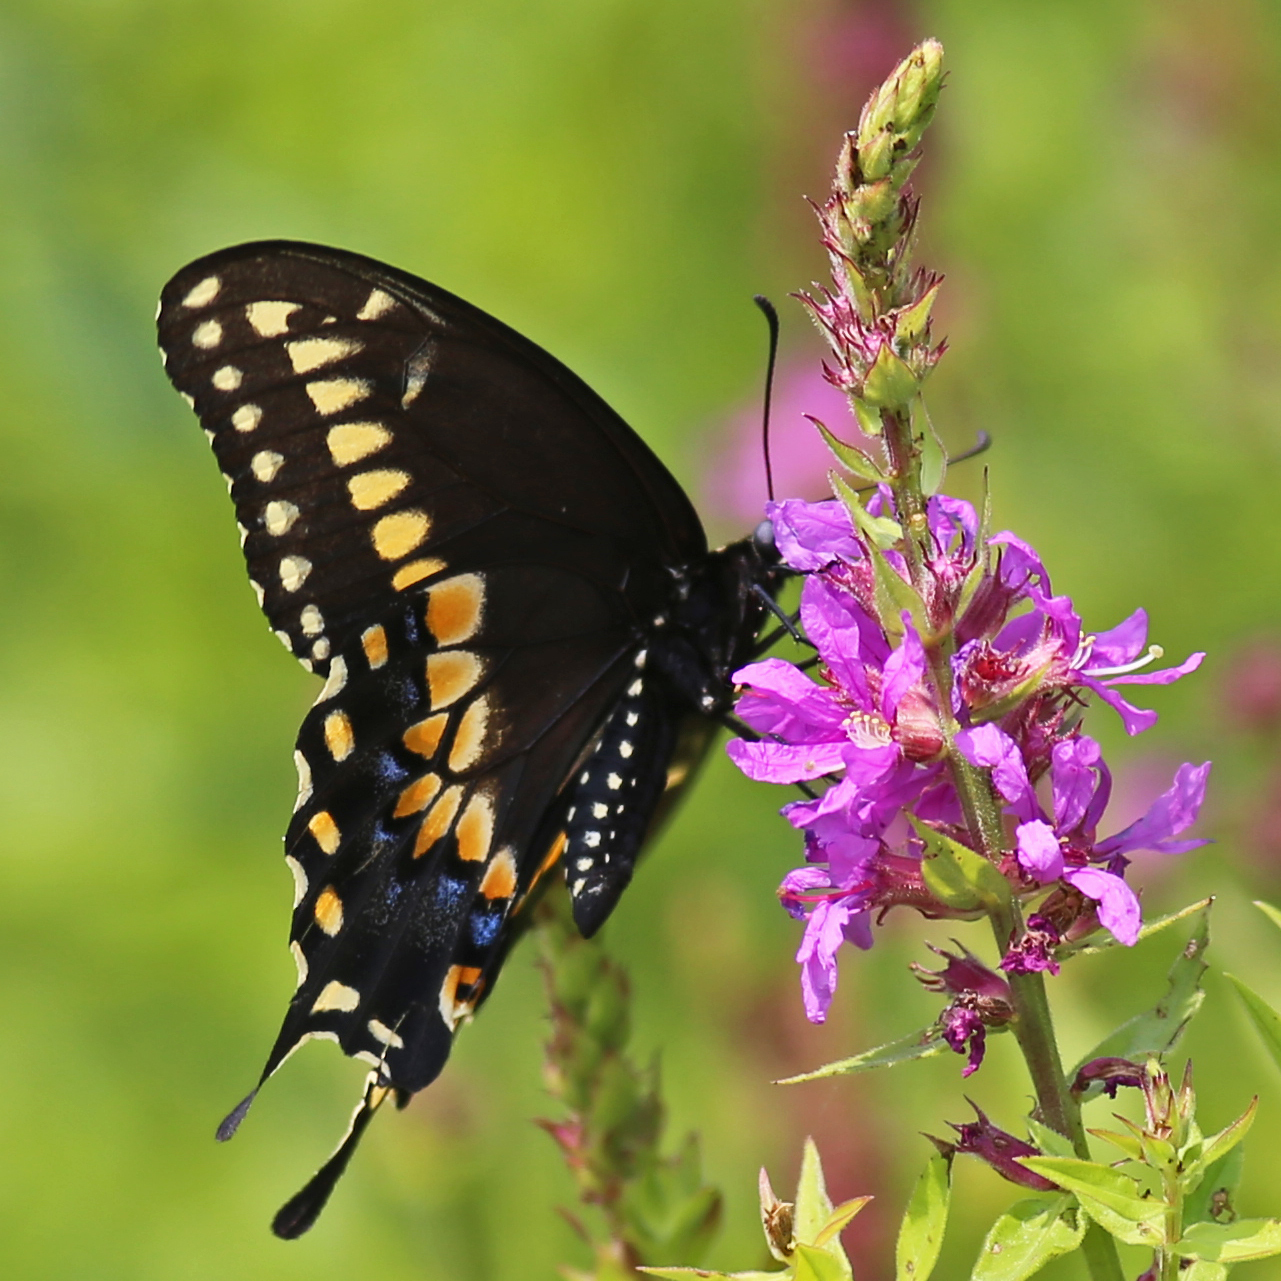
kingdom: Animalia
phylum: Arthropoda
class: Insecta
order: Lepidoptera
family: Papilionidae
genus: Papilio
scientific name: Papilio polyxenes
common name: Black swallowtail
